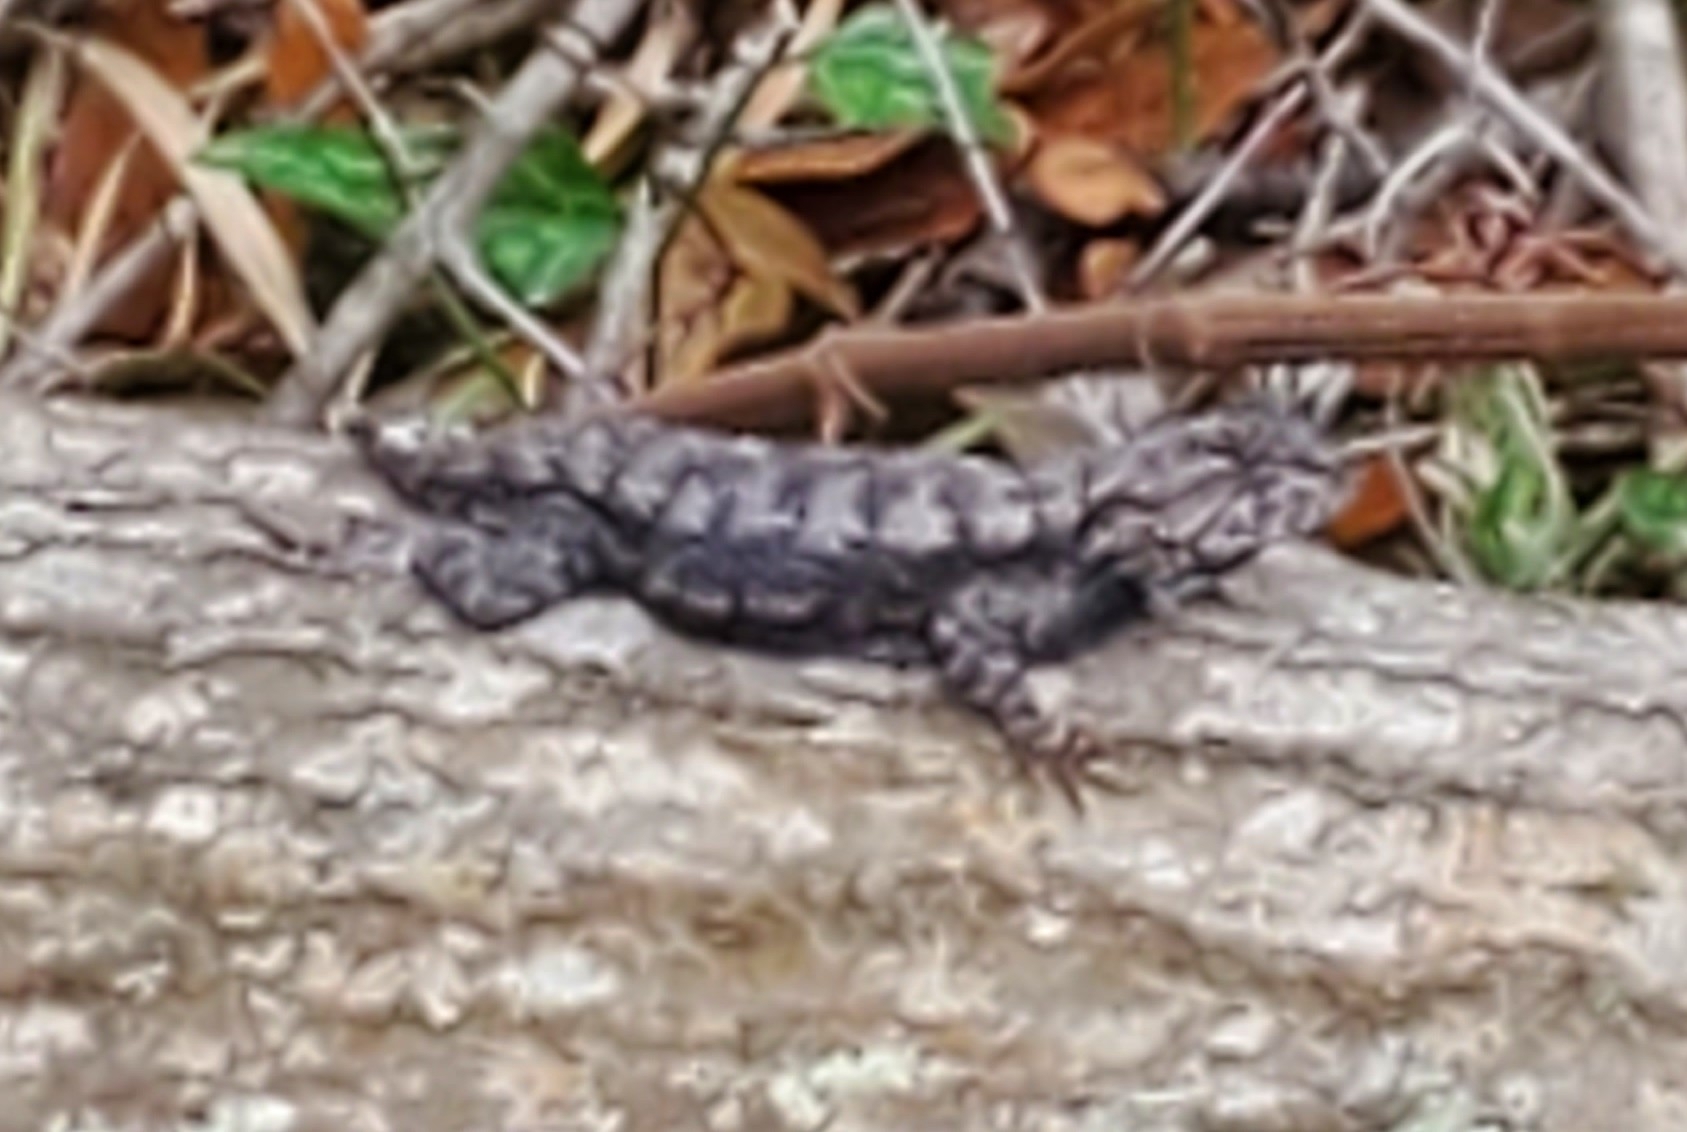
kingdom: Animalia
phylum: Chordata
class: Squamata
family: Phrynosomatidae
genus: Sceloporus
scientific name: Sceloporus undulatus
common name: Eastern fence lizard
